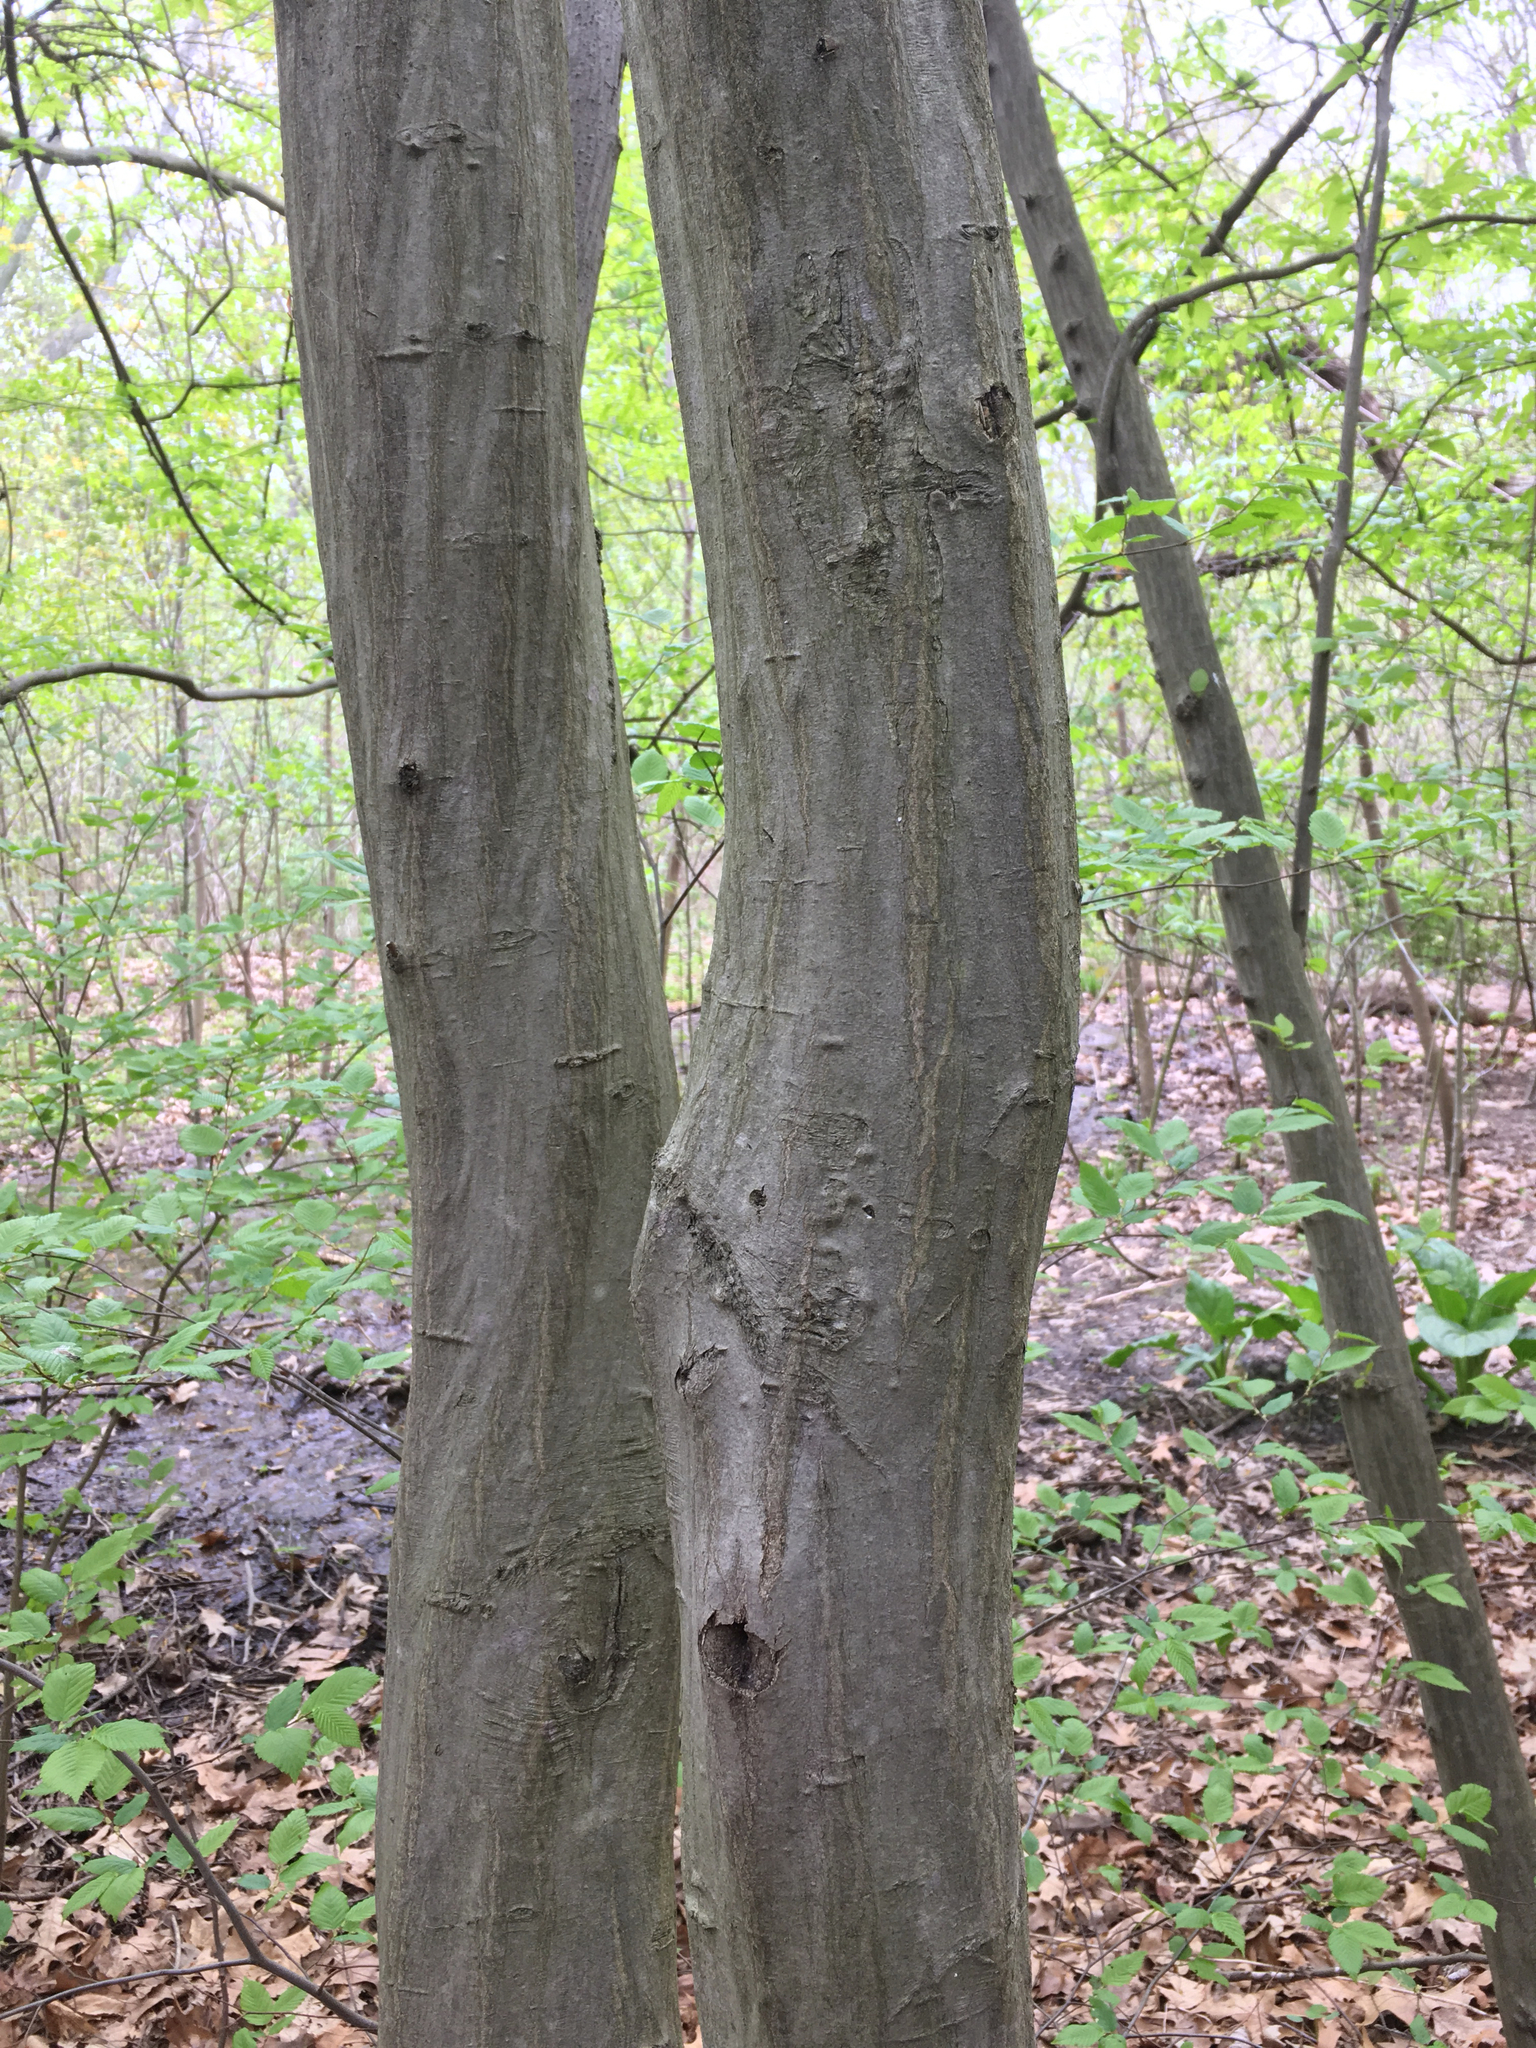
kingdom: Plantae
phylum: Tracheophyta
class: Magnoliopsida
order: Fagales
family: Betulaceae
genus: Carpinus
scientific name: Carpinus caroliniana
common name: American hornbeam
